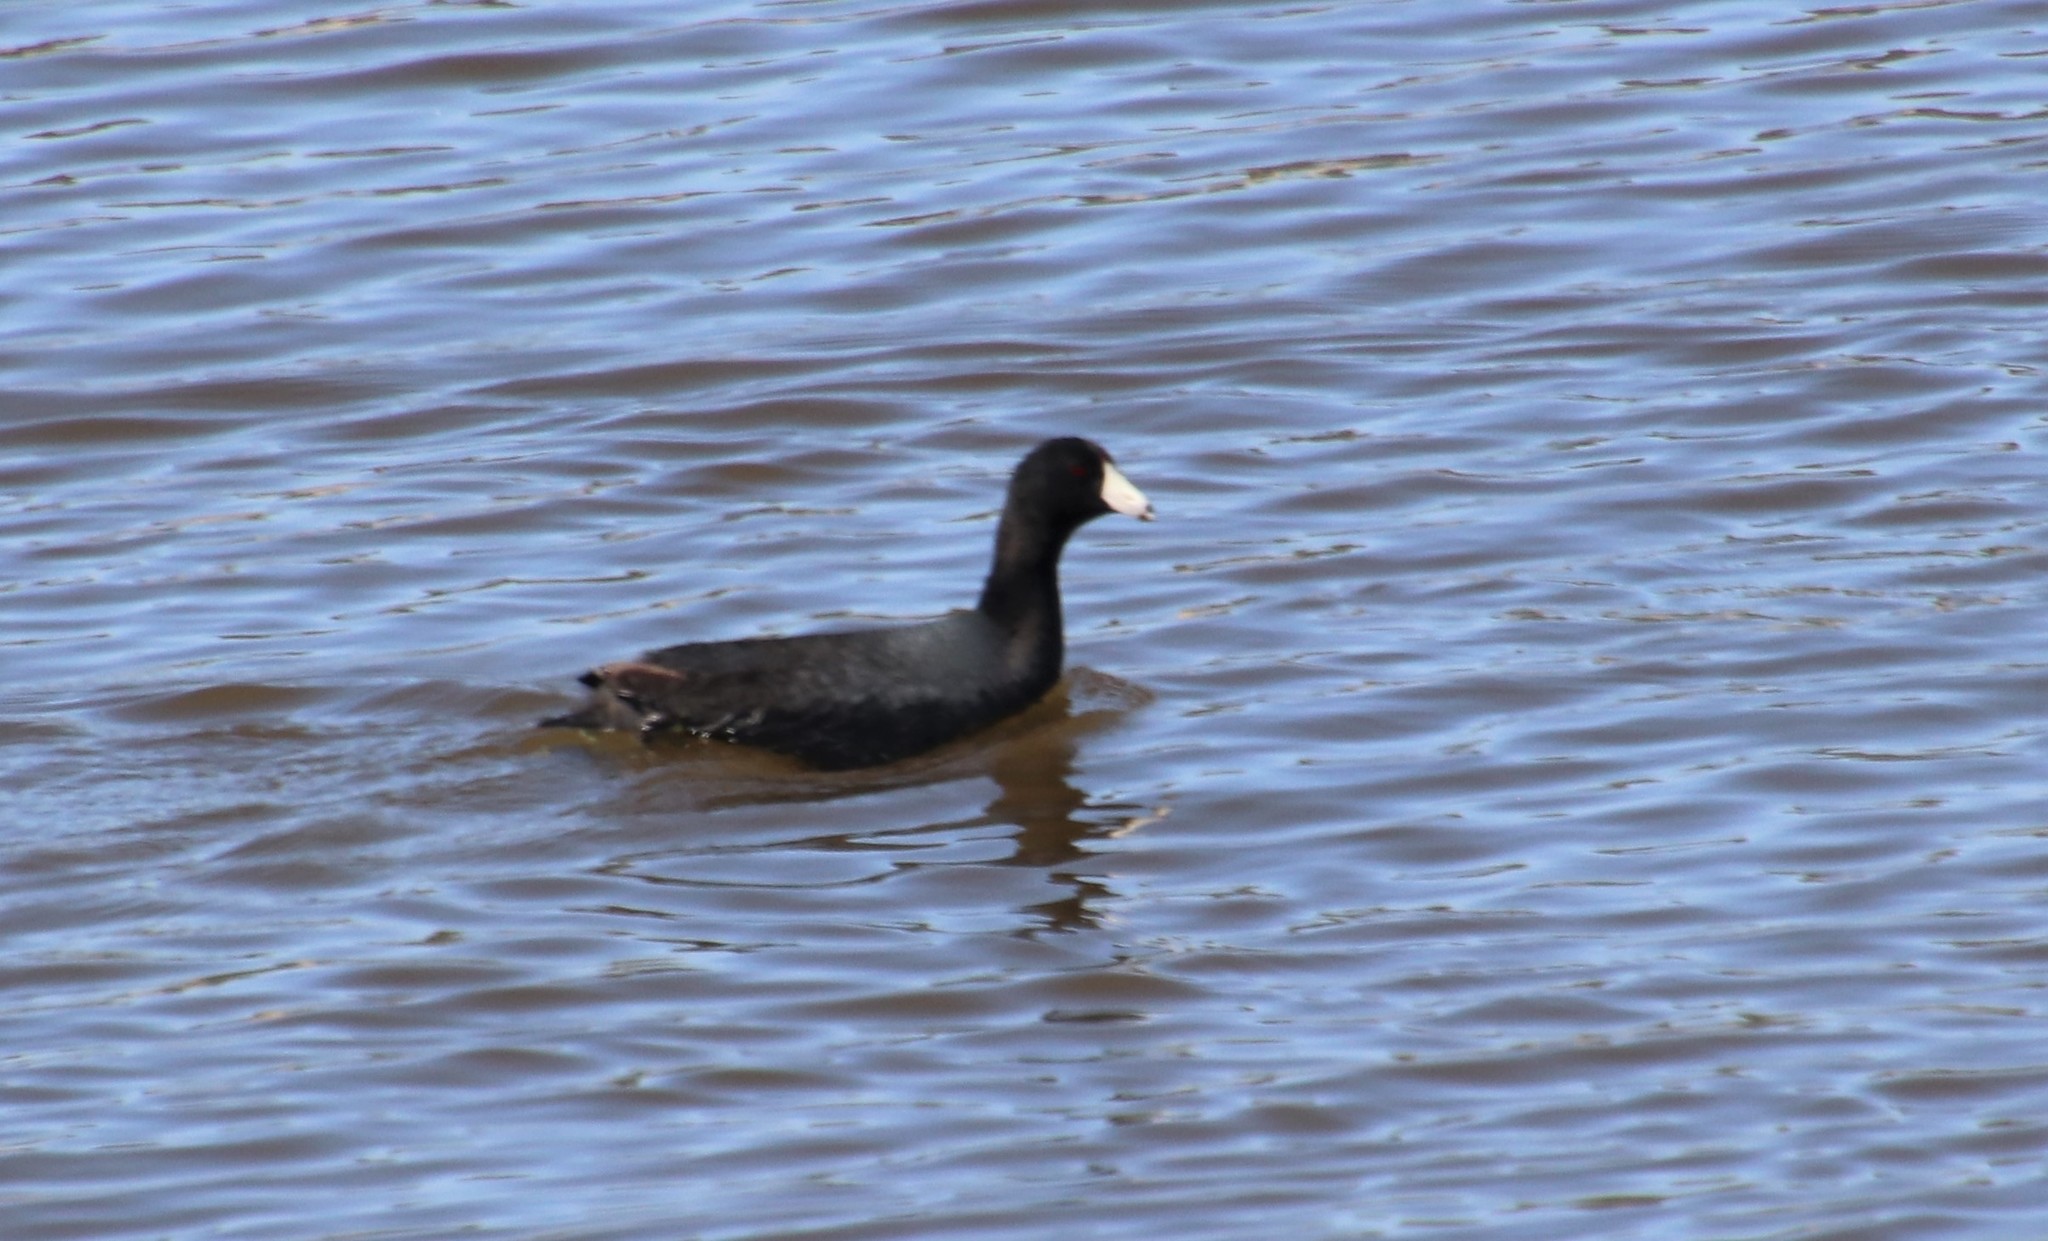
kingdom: Animalia
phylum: Chordata
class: Aves
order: Gruiformes
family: Rallidae
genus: Fulica
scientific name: Fulica americana
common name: American coot
